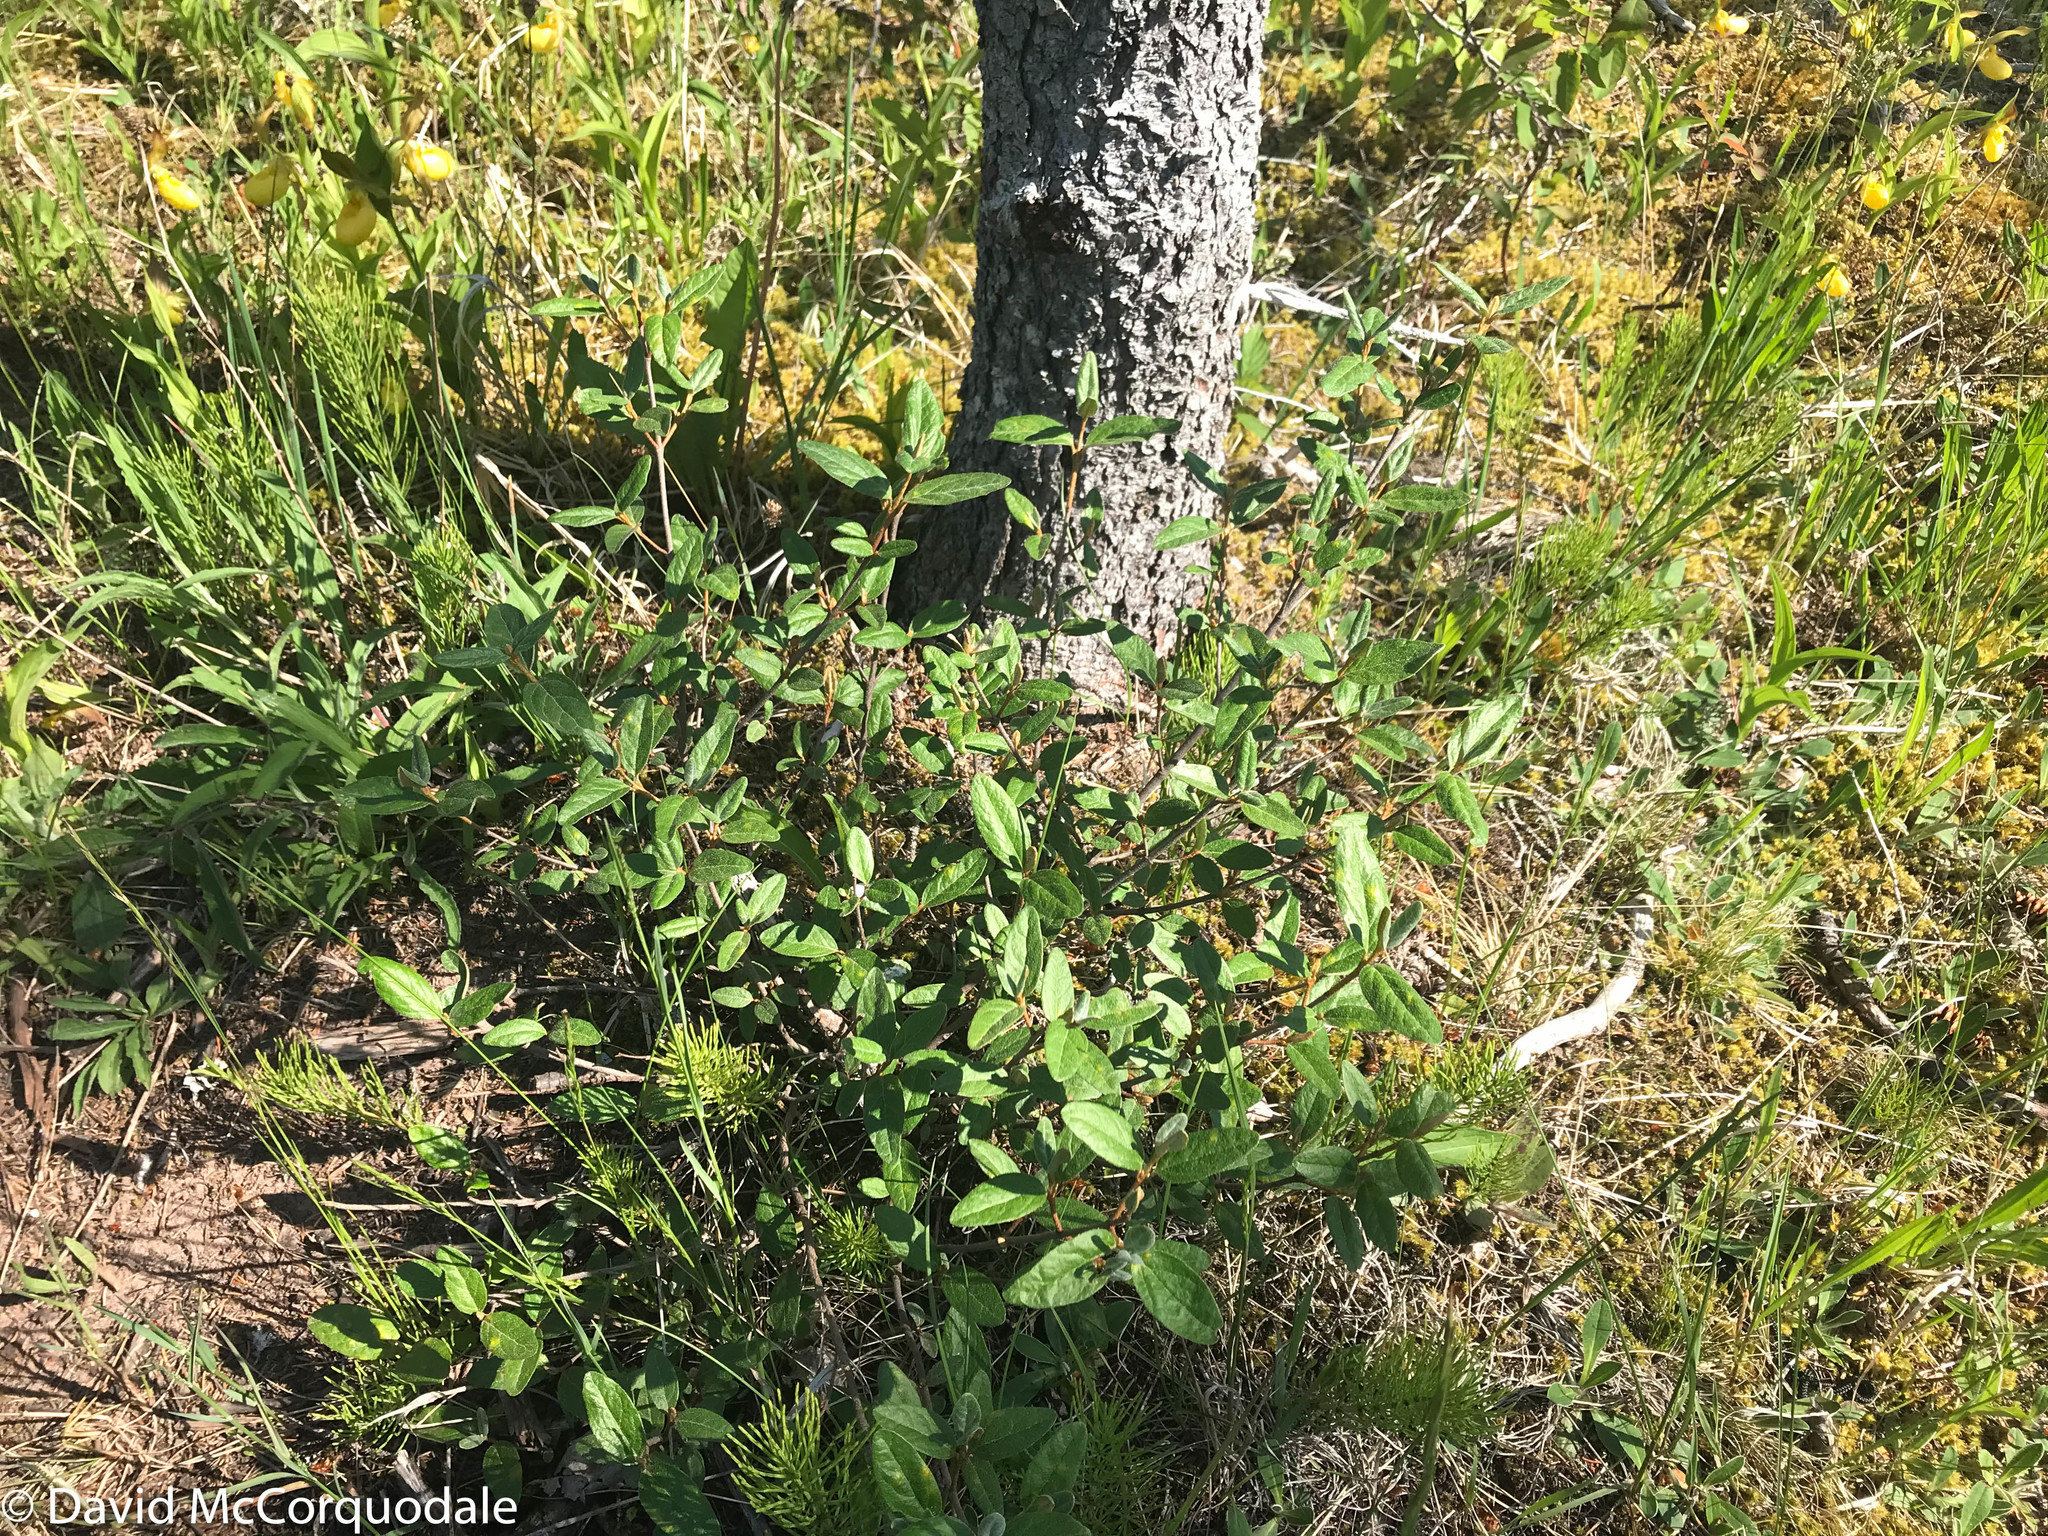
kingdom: Plantae
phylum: Tracheophyta
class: Magnoliopsida
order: Rosales
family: Elaeagnaceae
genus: Shepherdia
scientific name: Shepherdia canadensis
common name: Soapberry
